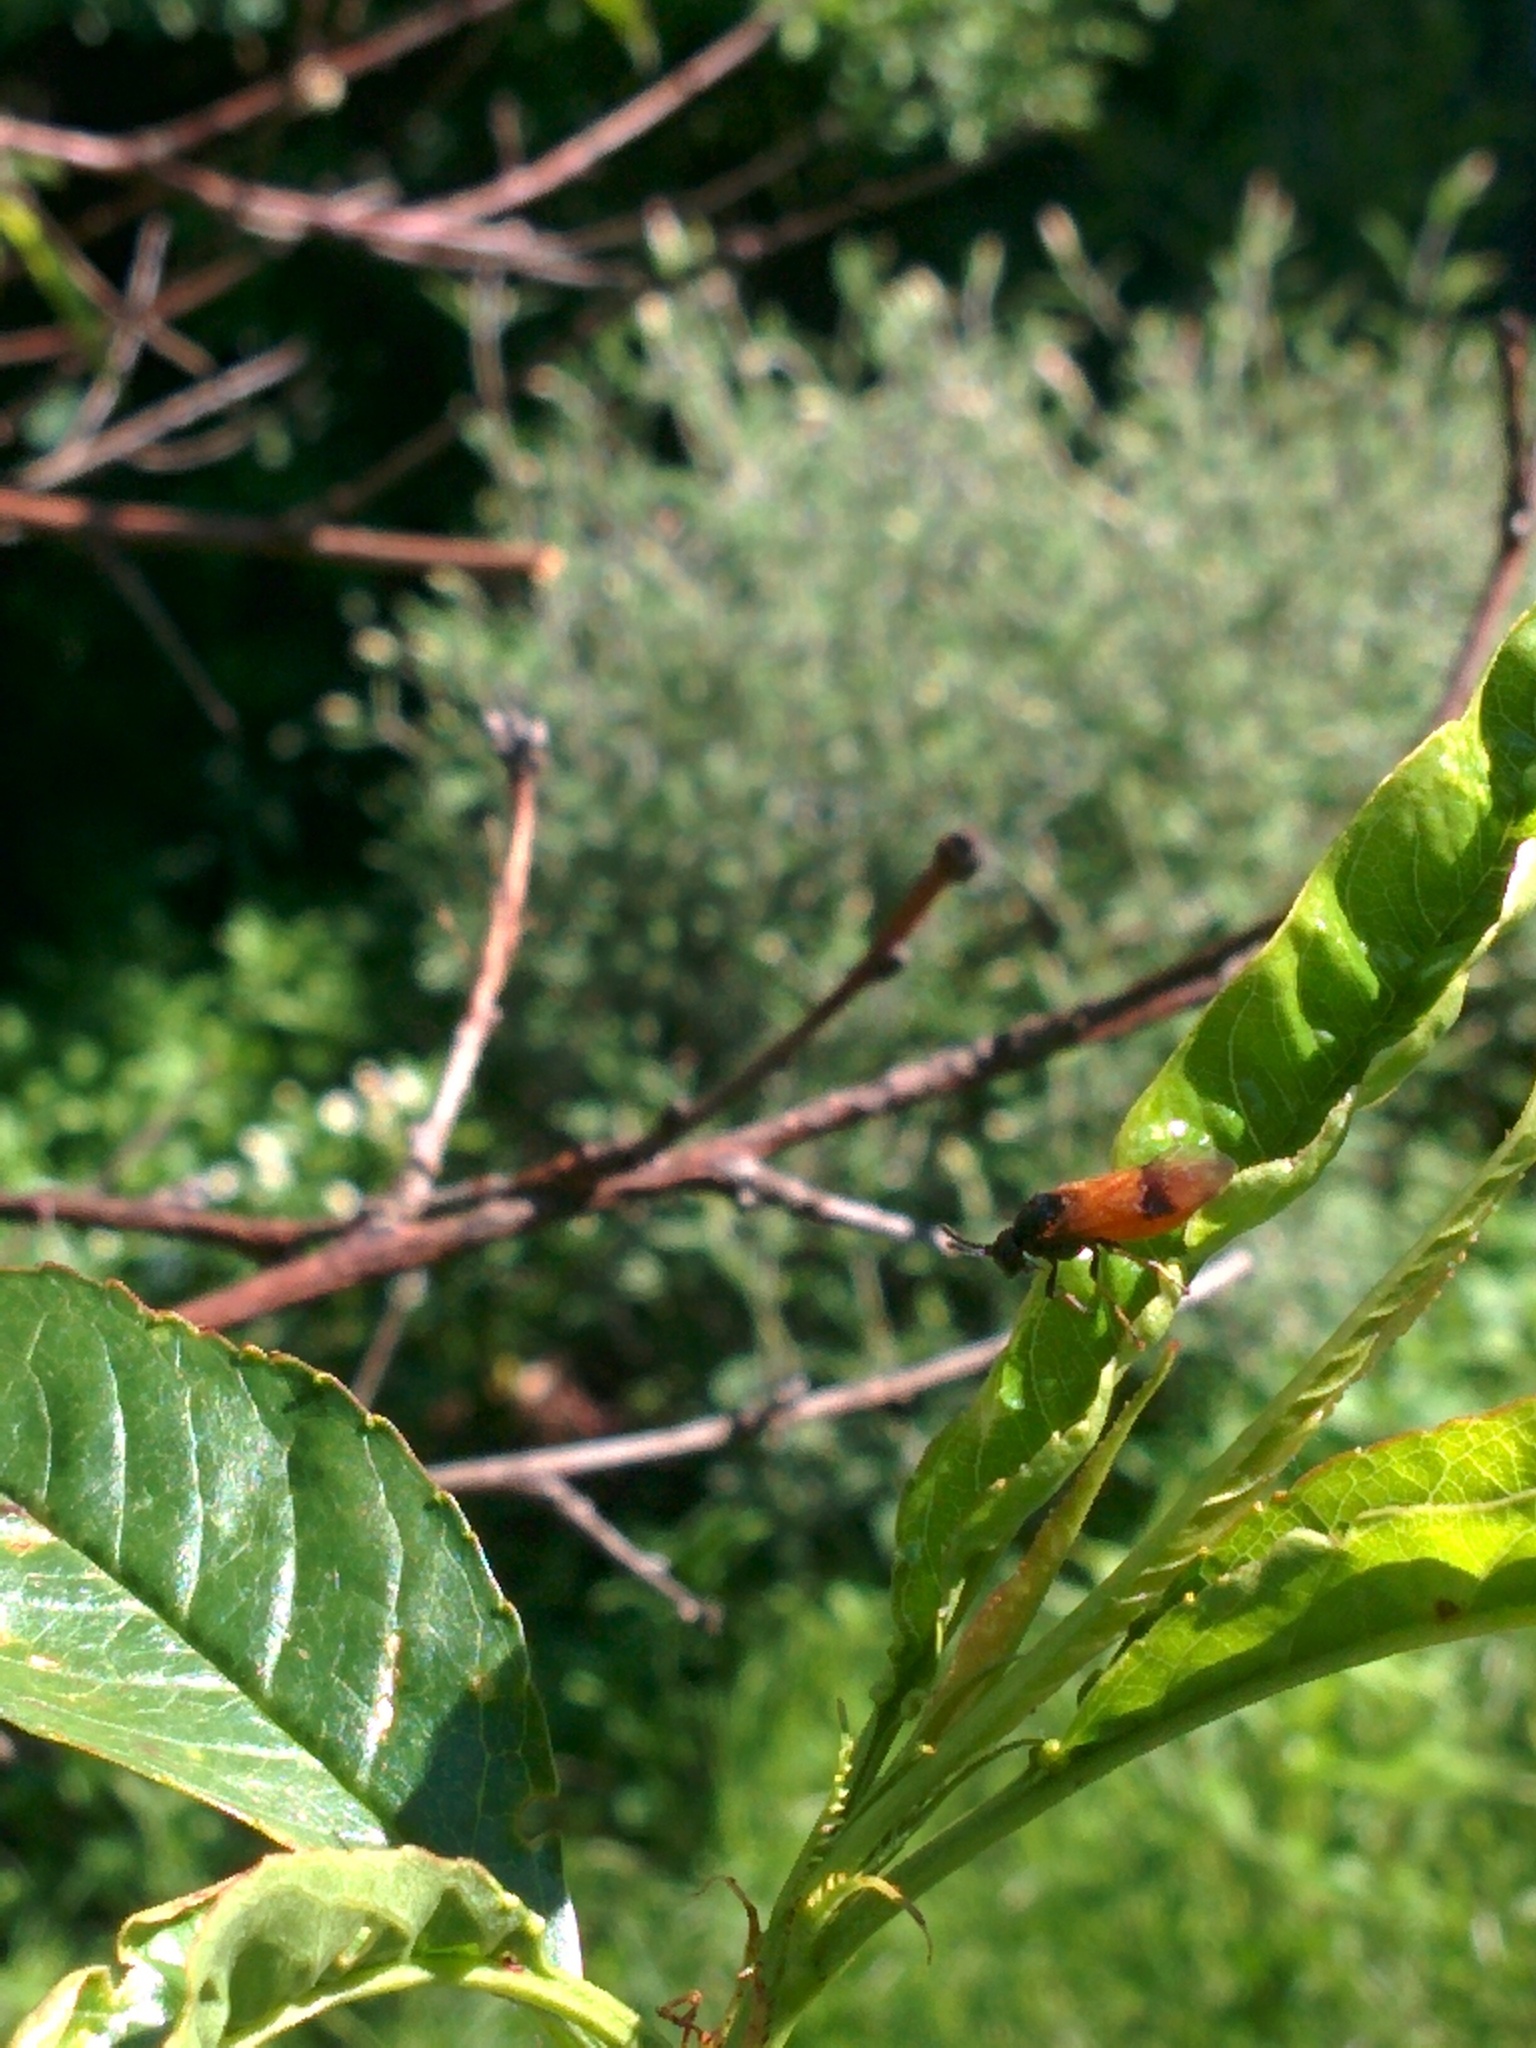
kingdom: Animalia
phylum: Arthropoda
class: Insecta
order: Hymenoptera
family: Argidae
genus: Arge
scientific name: Arge cyanocrocea
